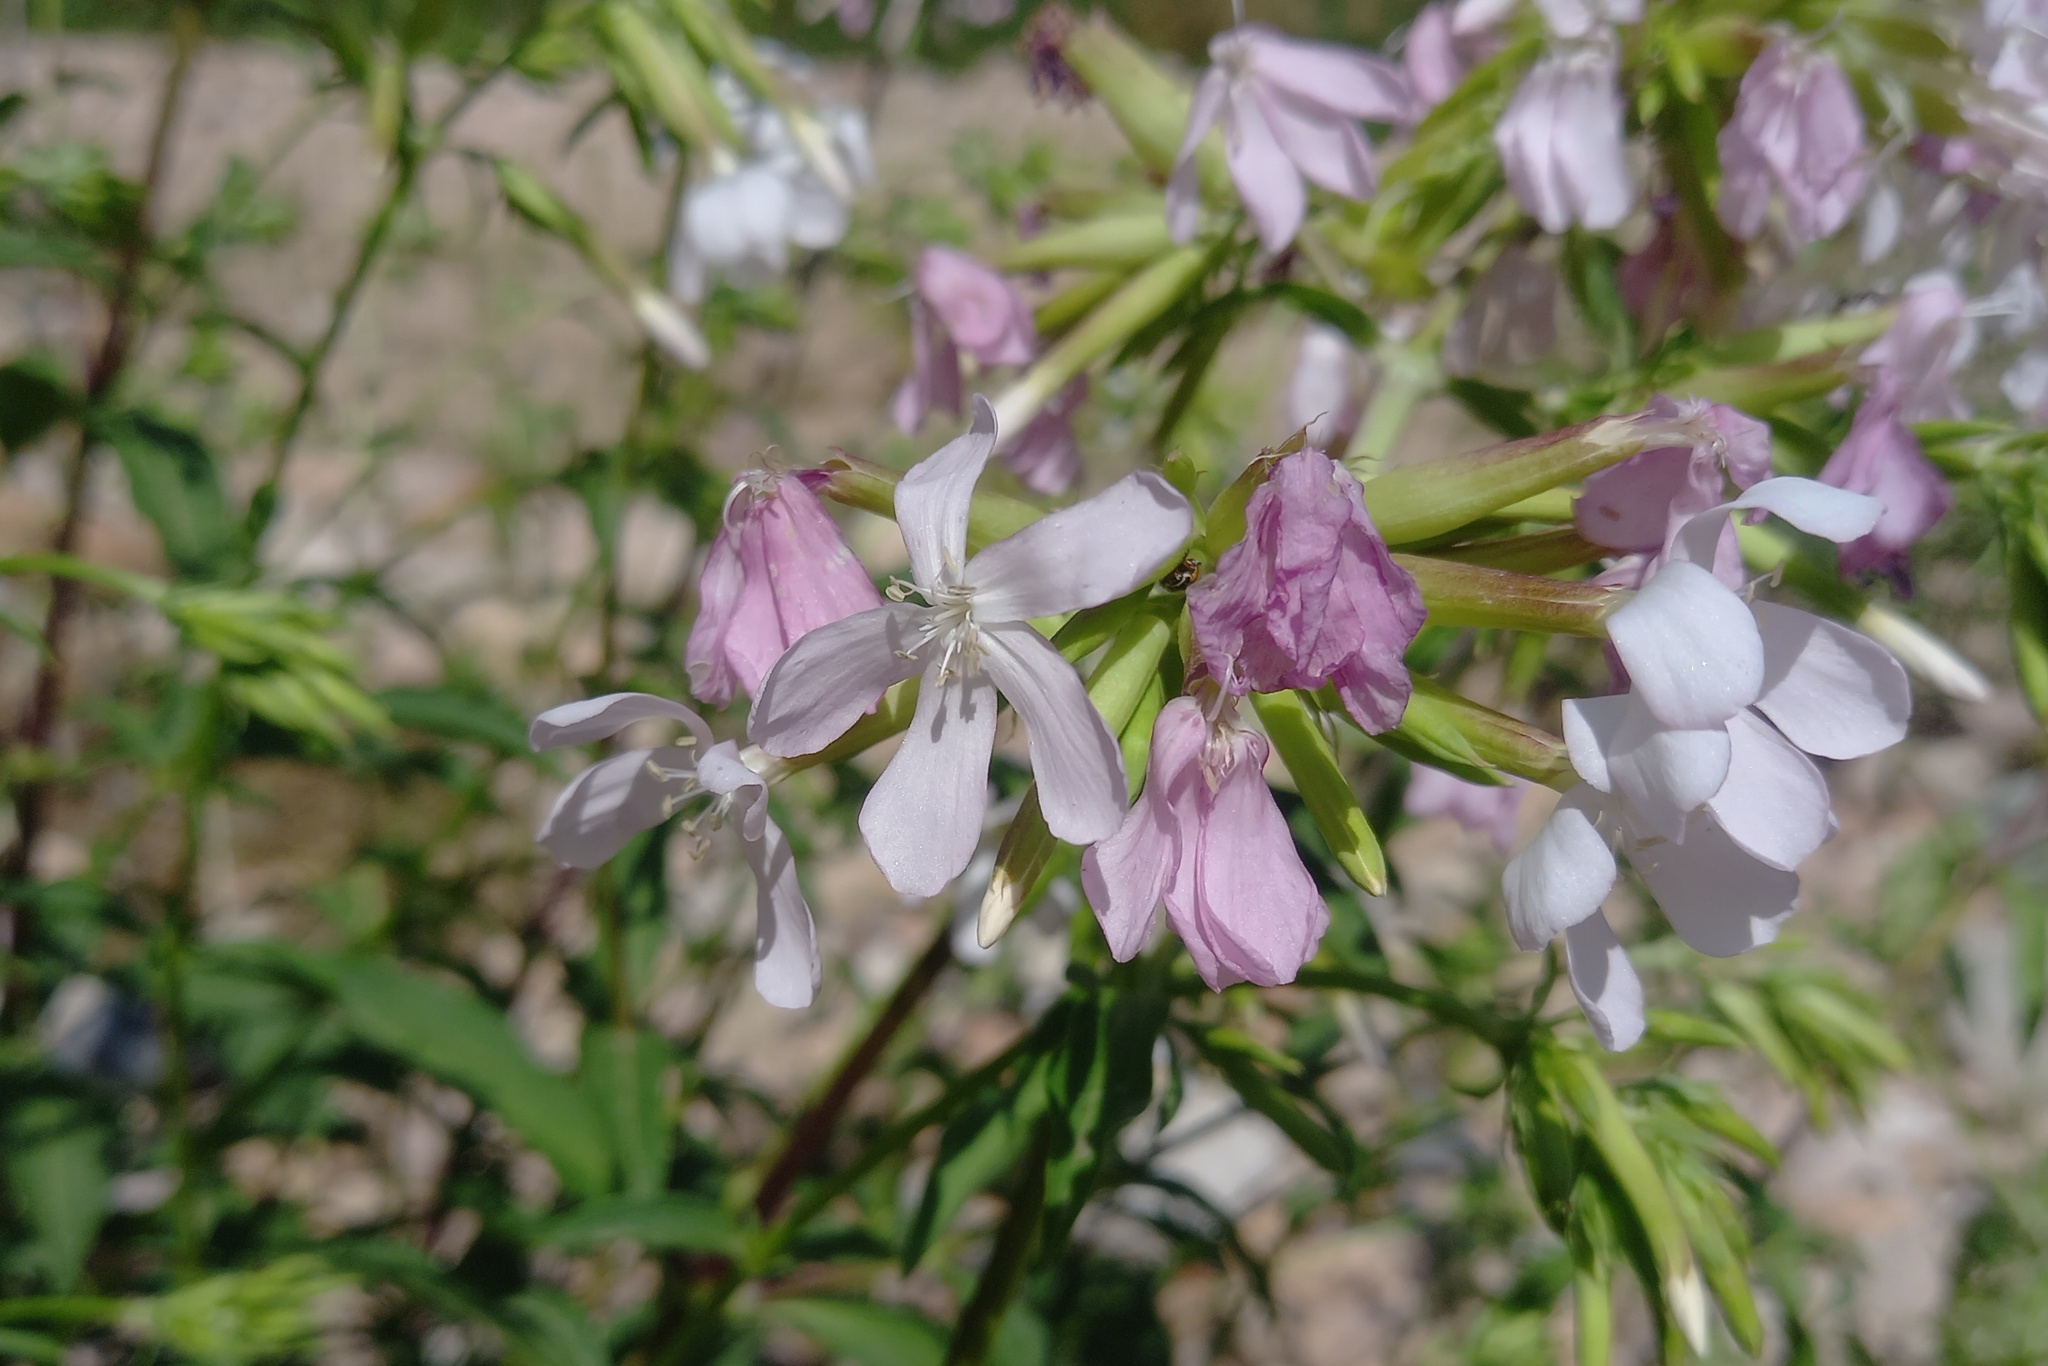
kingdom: Plantae
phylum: Tracheophyta
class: Magnoliopsida
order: Caryophyllales
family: Caryophyllaceae
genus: Saponaria
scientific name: Saponaria officinalis
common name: Soapwort
